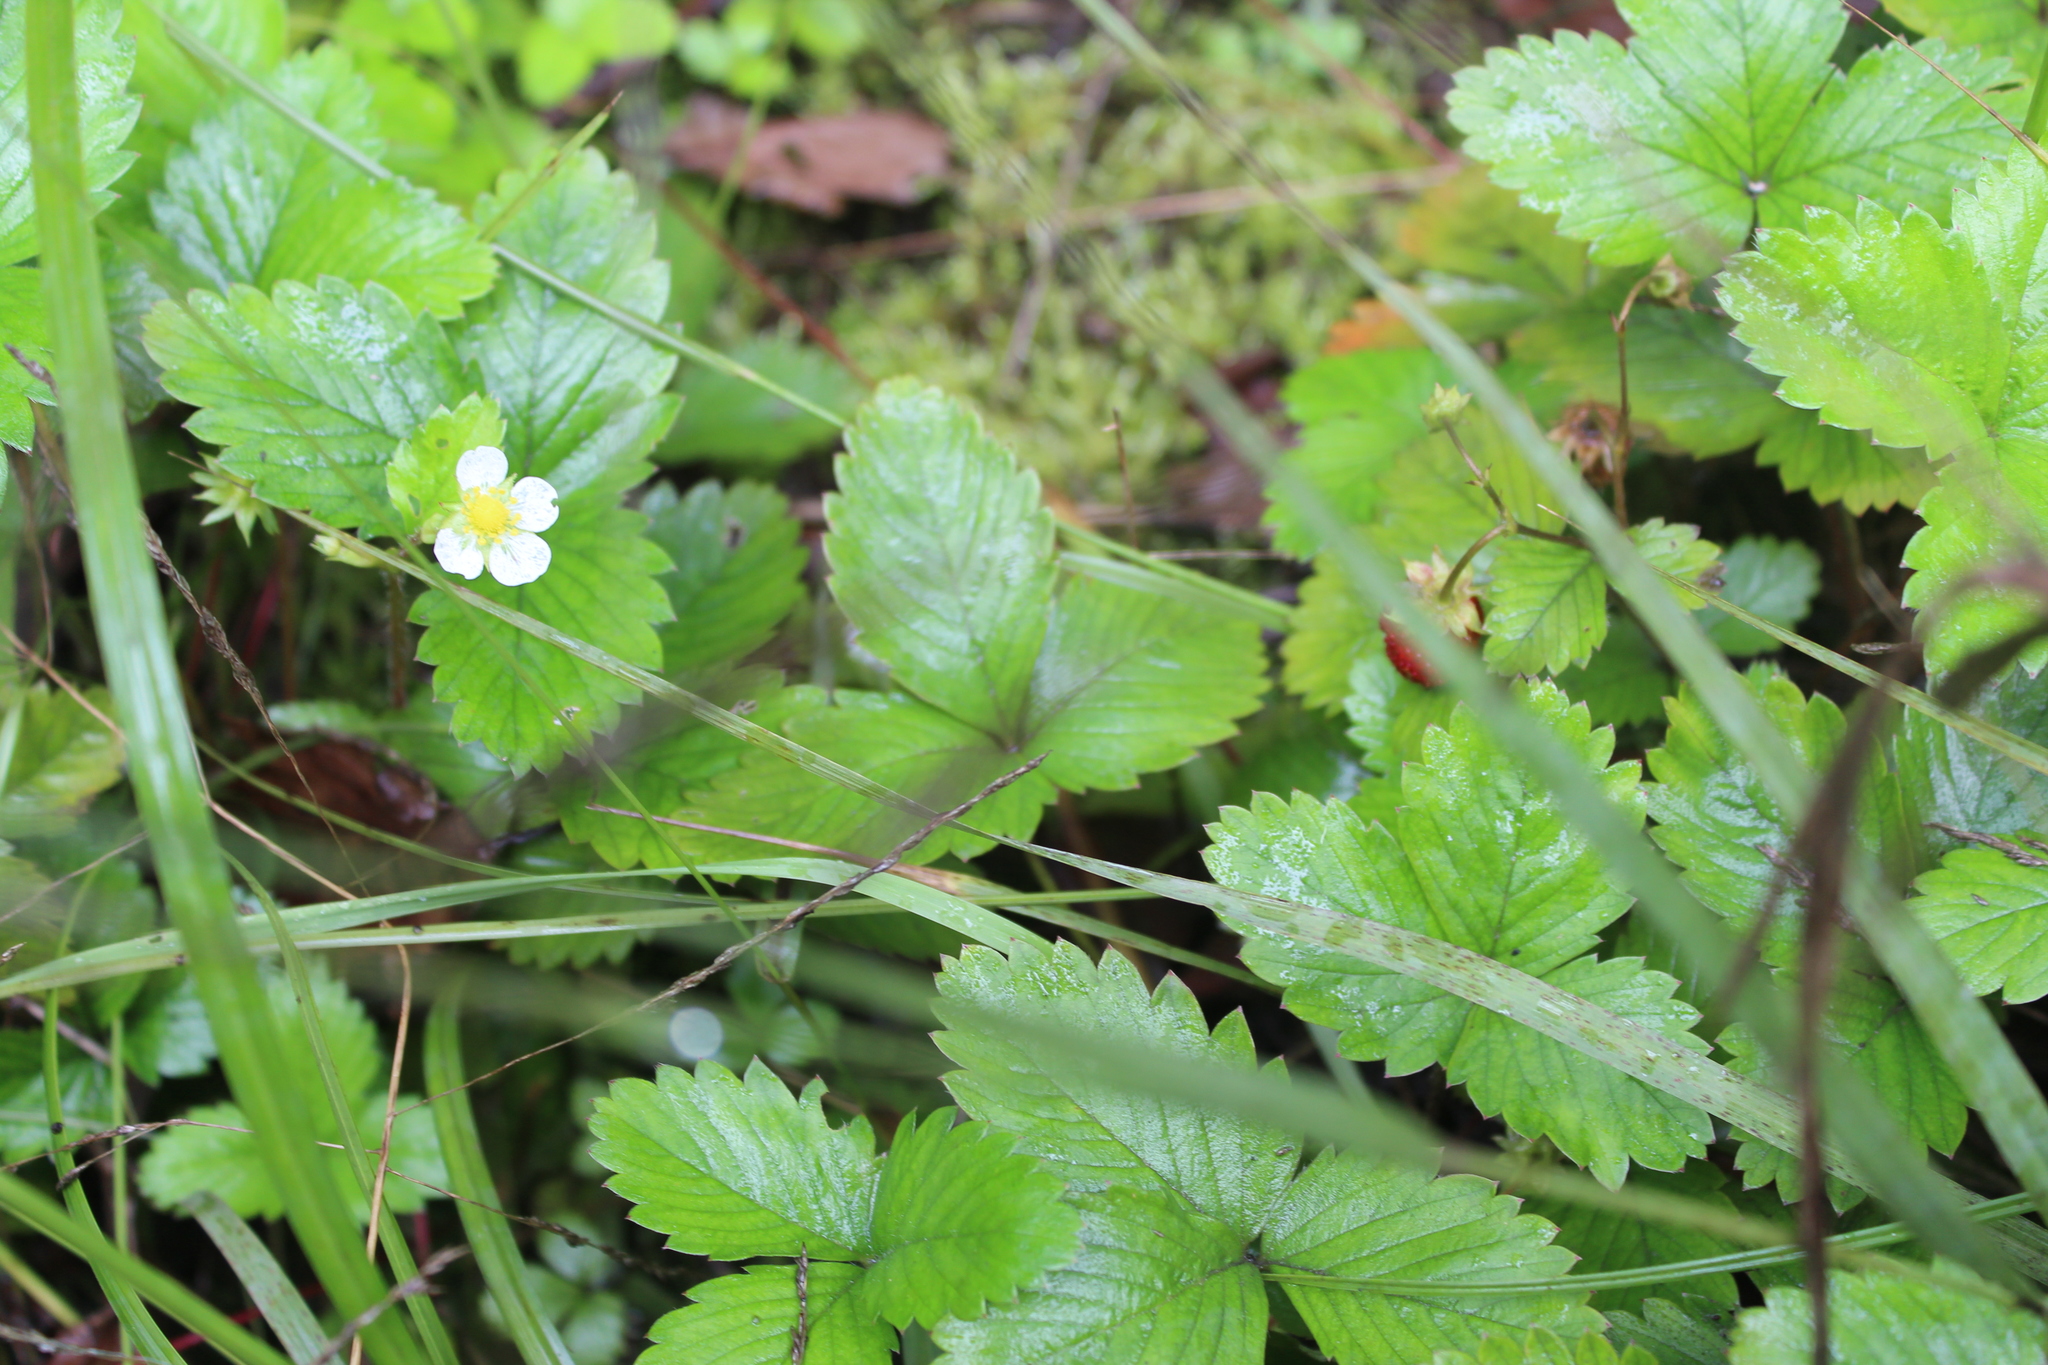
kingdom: Plantae
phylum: Tracheophyta
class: Magnoliopsida
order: Rosales
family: Rosaceae
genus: Fragaria
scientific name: Fragaria vesca
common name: Wild strawberry
